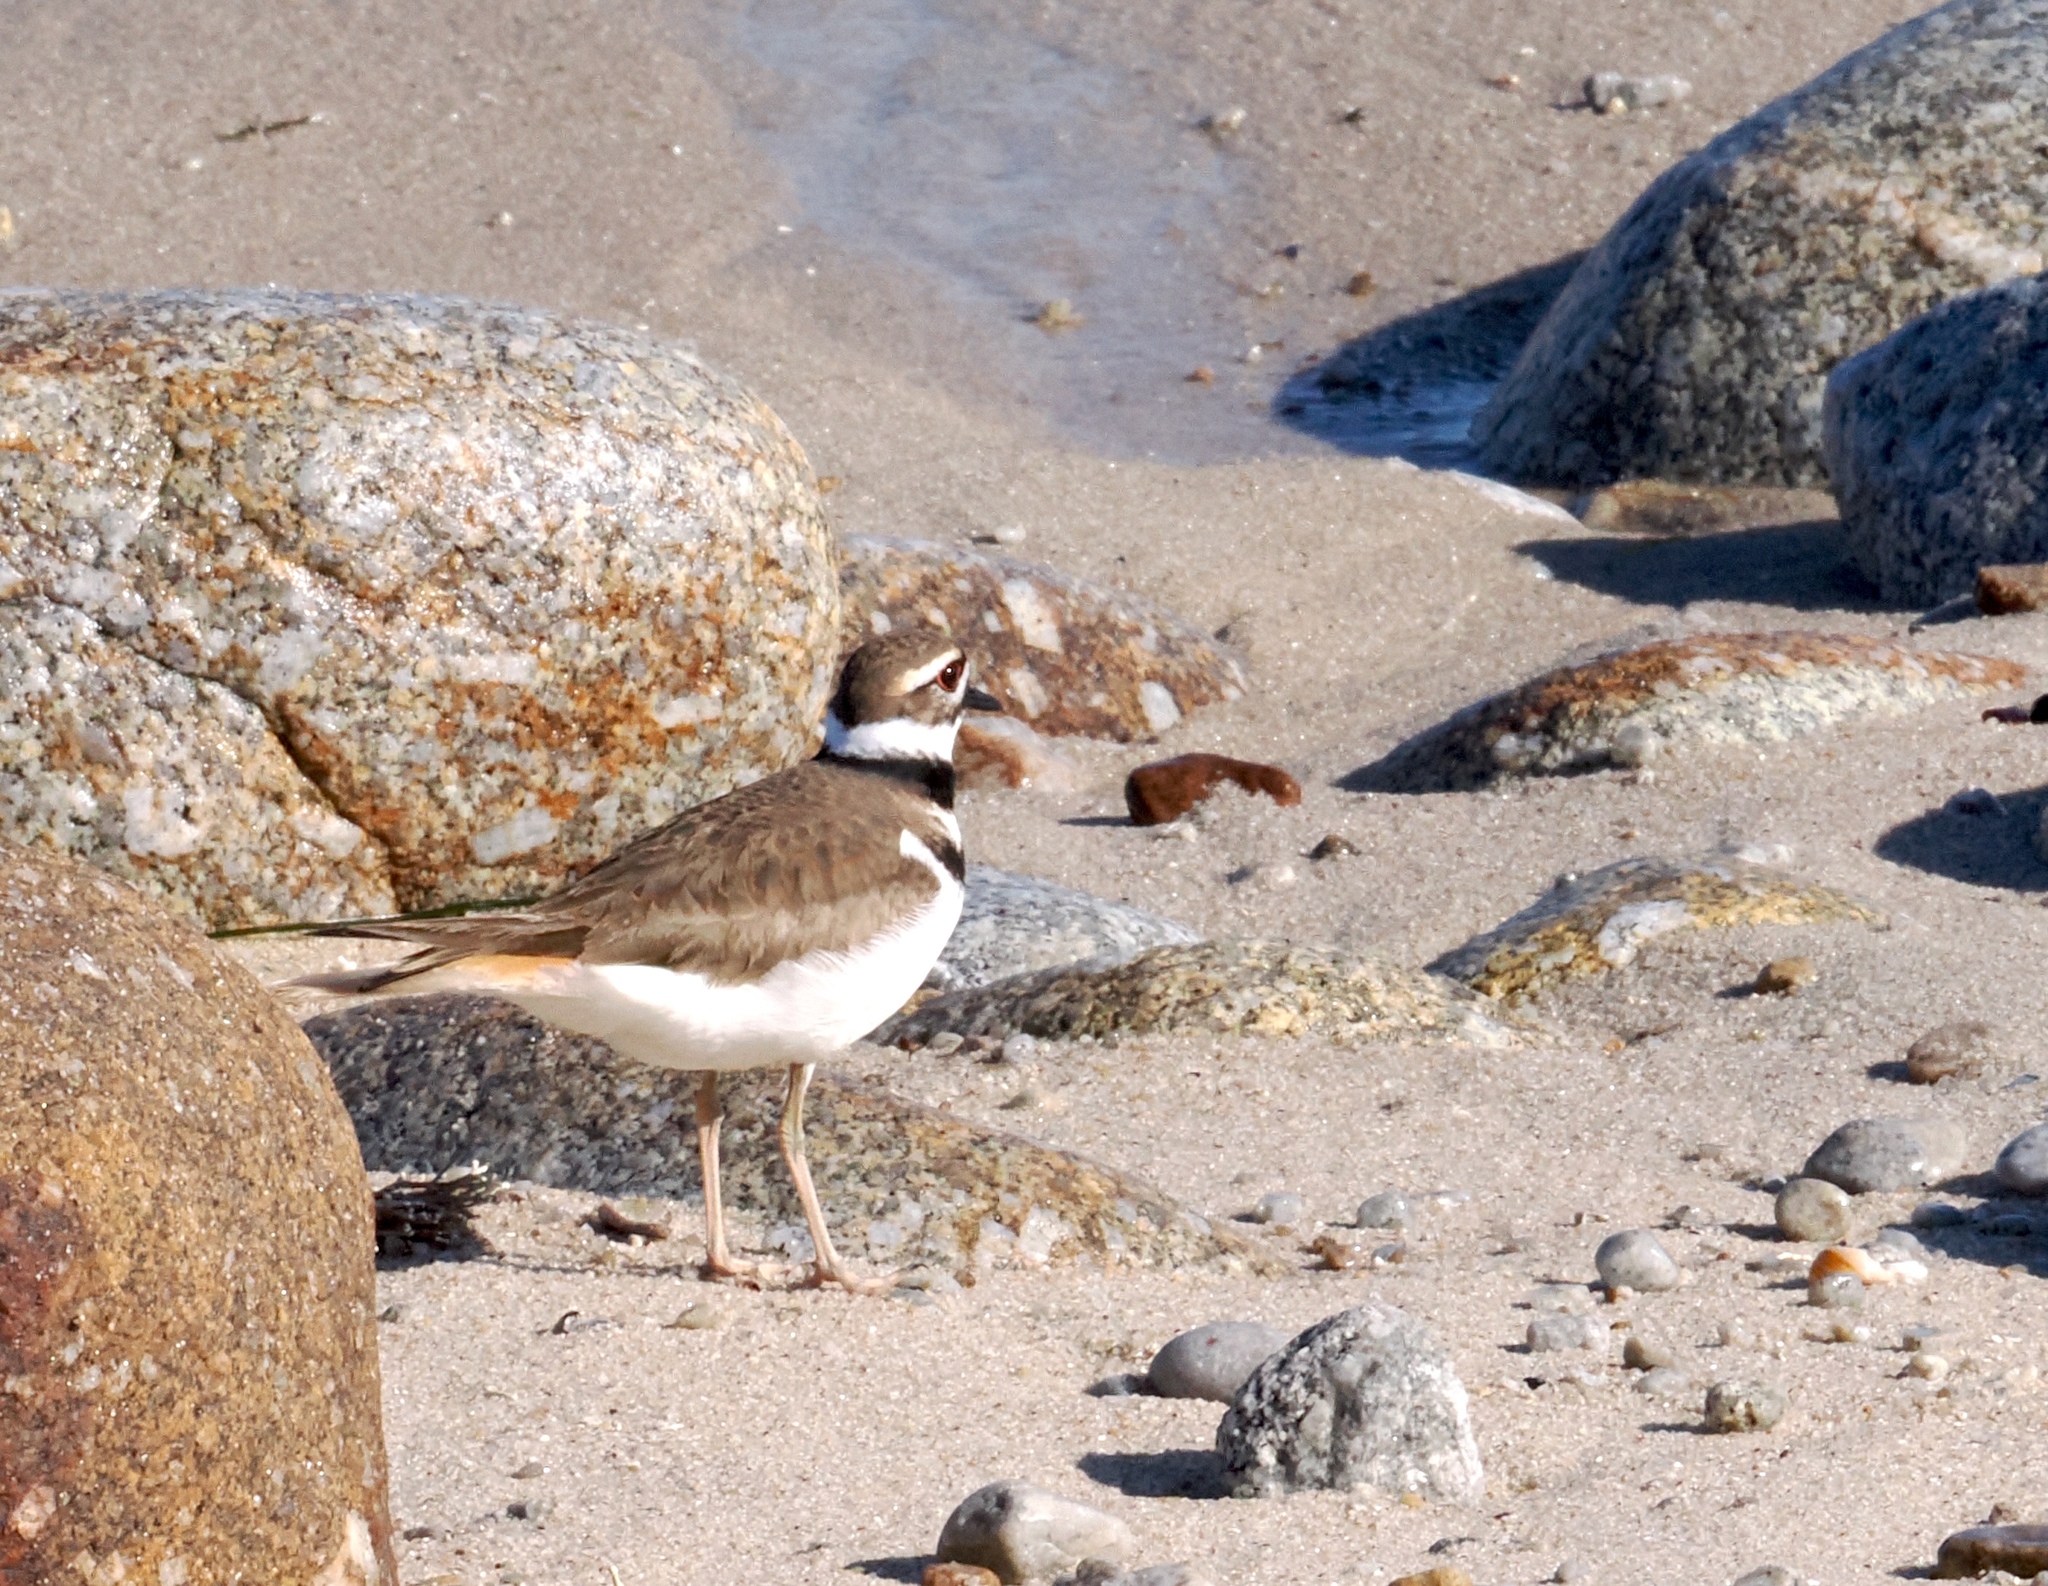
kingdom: Animalia
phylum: Chordata
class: Aves
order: Charadriiformes
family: Charadriidae
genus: Charadrius
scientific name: Charadrius vociferus
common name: Killdeer
